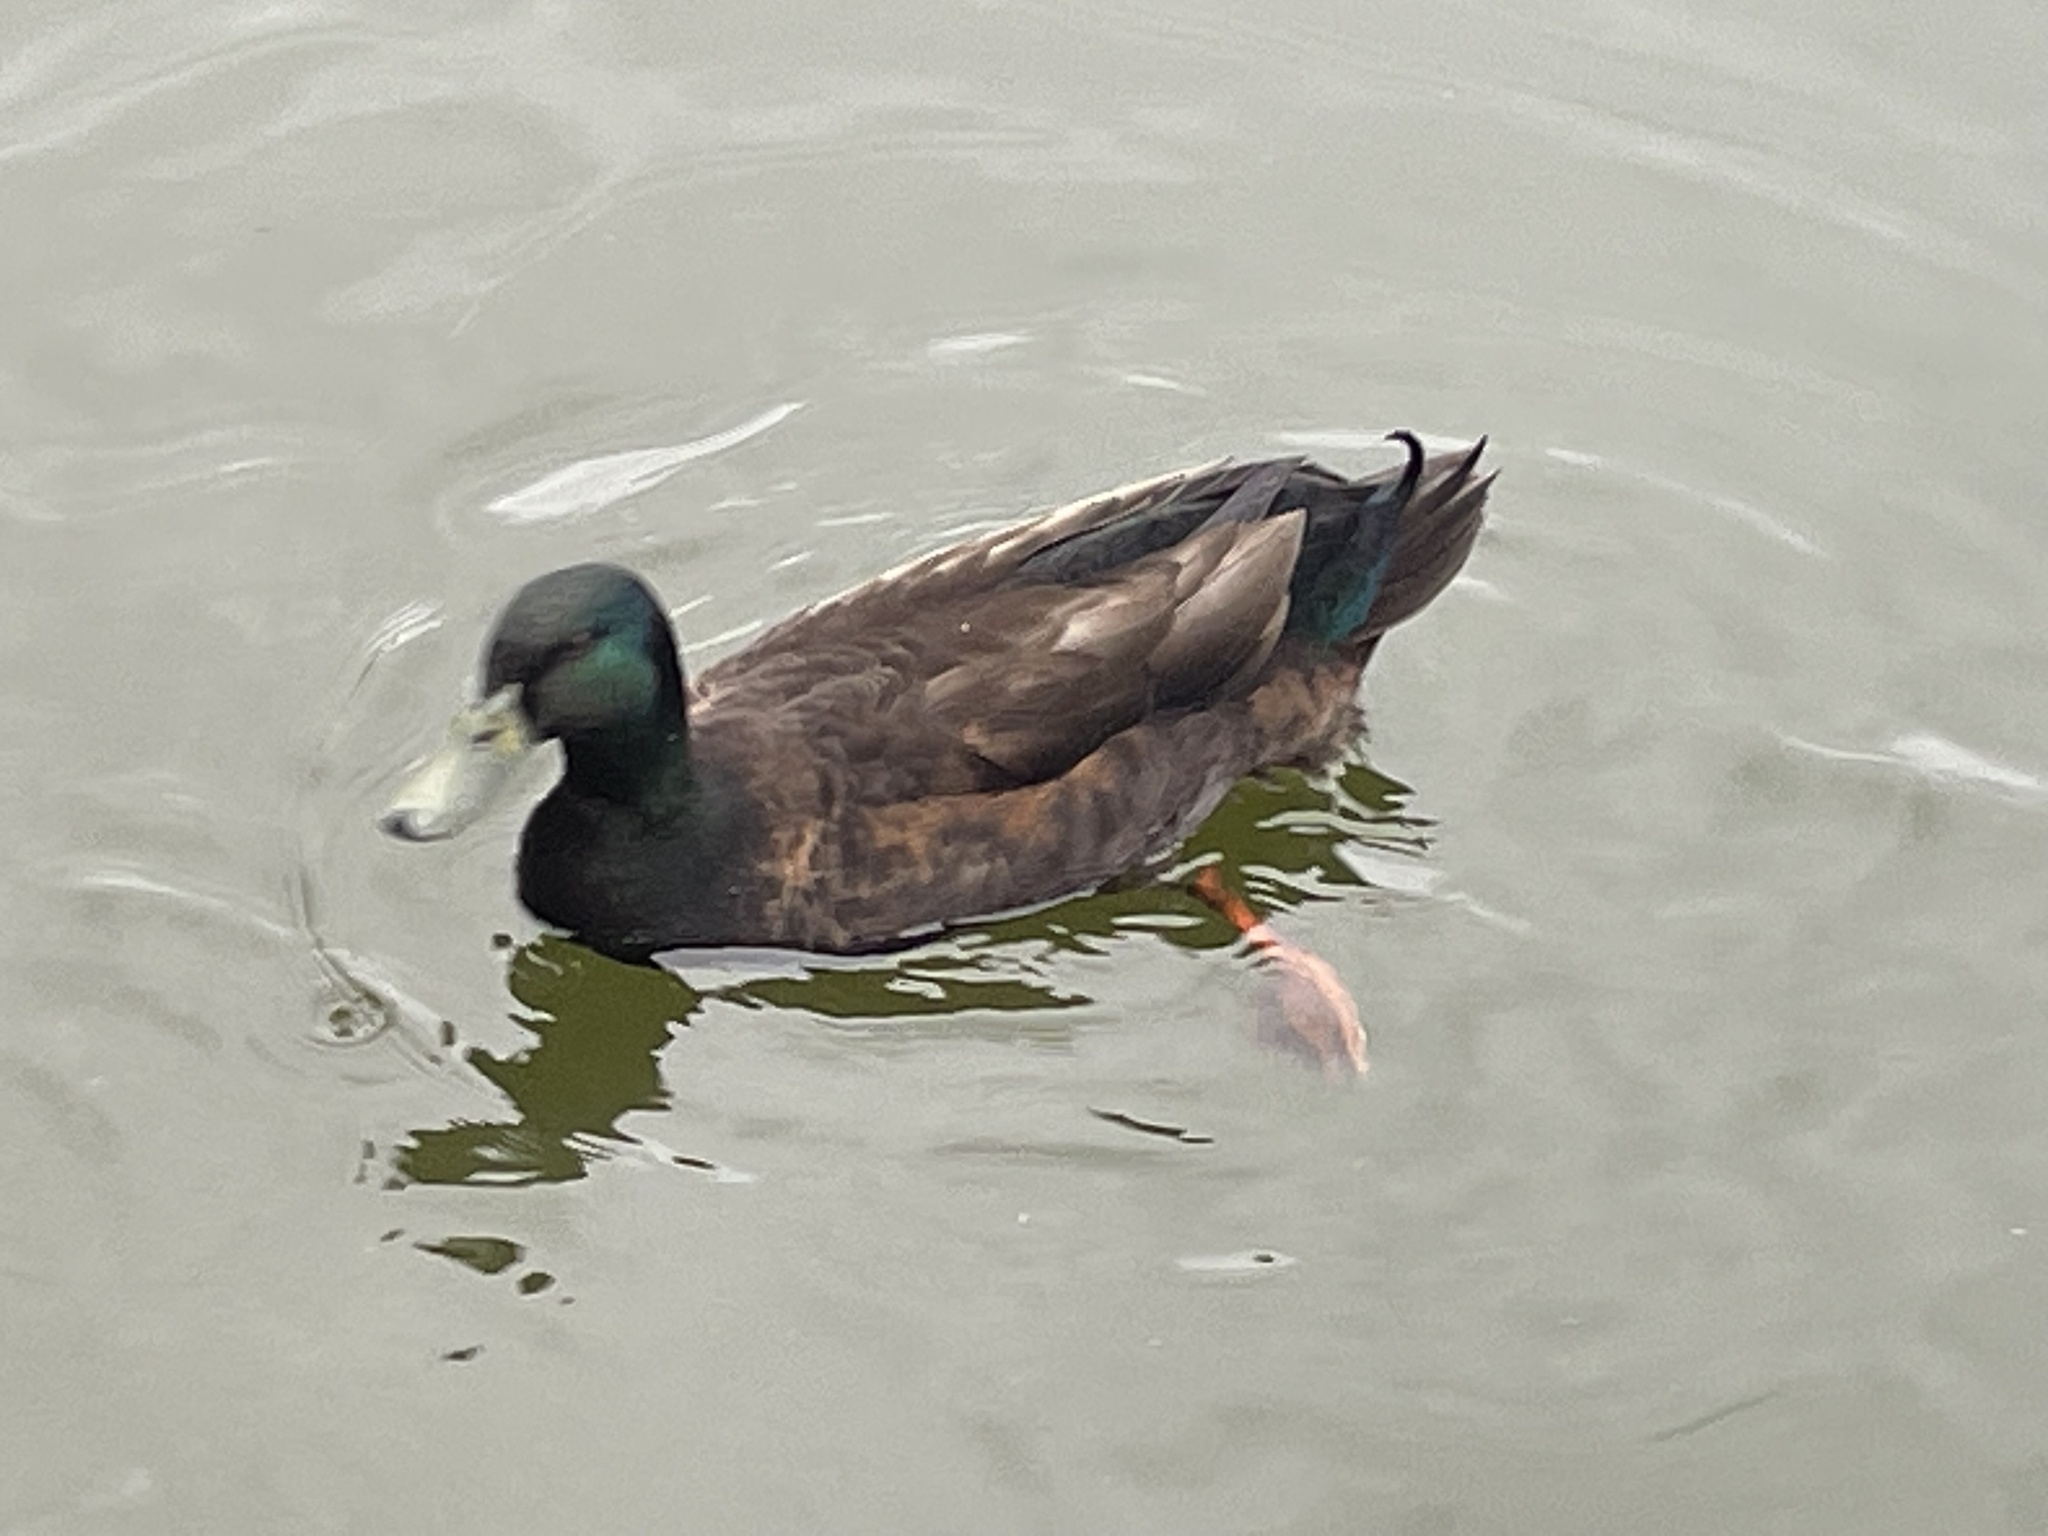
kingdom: Animalia
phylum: Chordata
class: Aves
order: Anseriformes
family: Anatidae
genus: Anas
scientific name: Anas platyrhynchos
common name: Mallard
